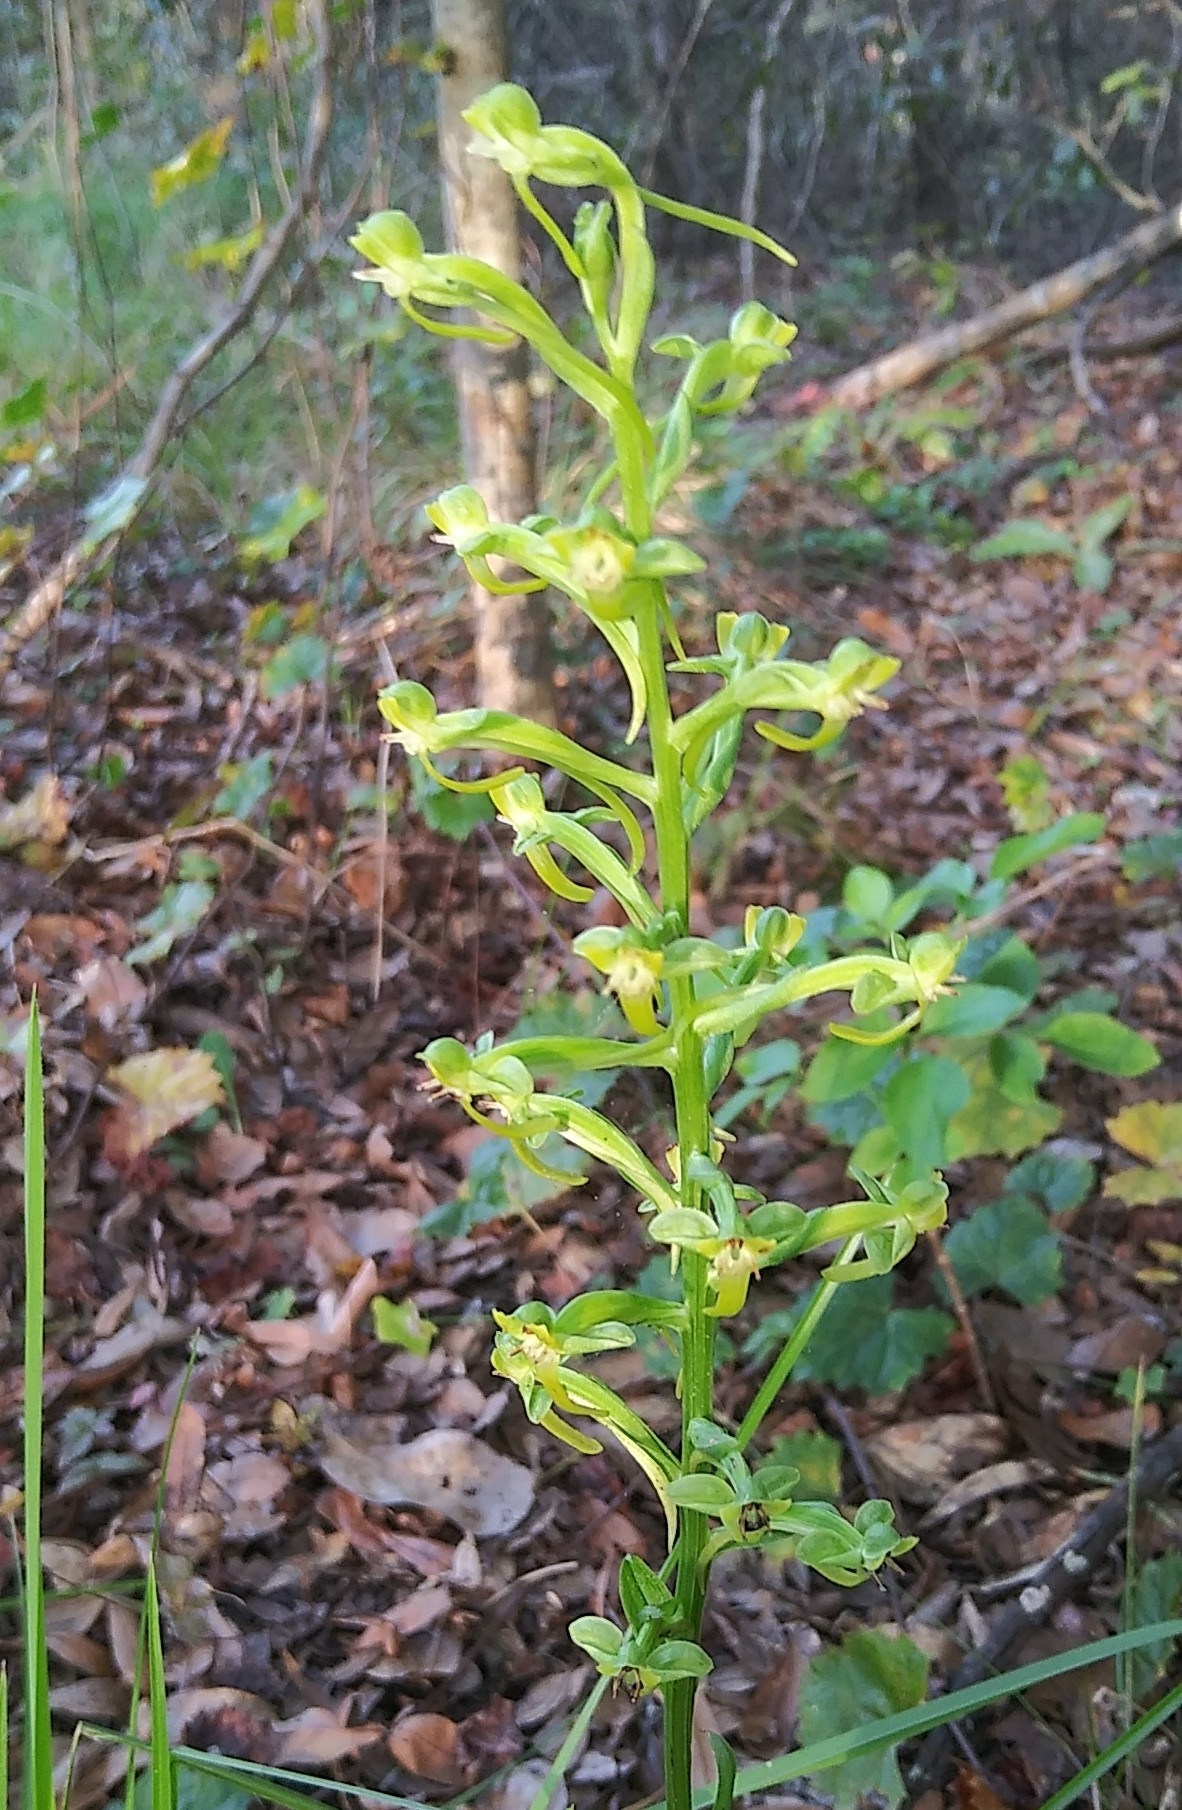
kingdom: Plantae
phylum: Tracheophyta
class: Liliopsida
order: Asparagales
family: Orchidaceae
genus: Habenaria
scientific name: Habenaria floribunda
